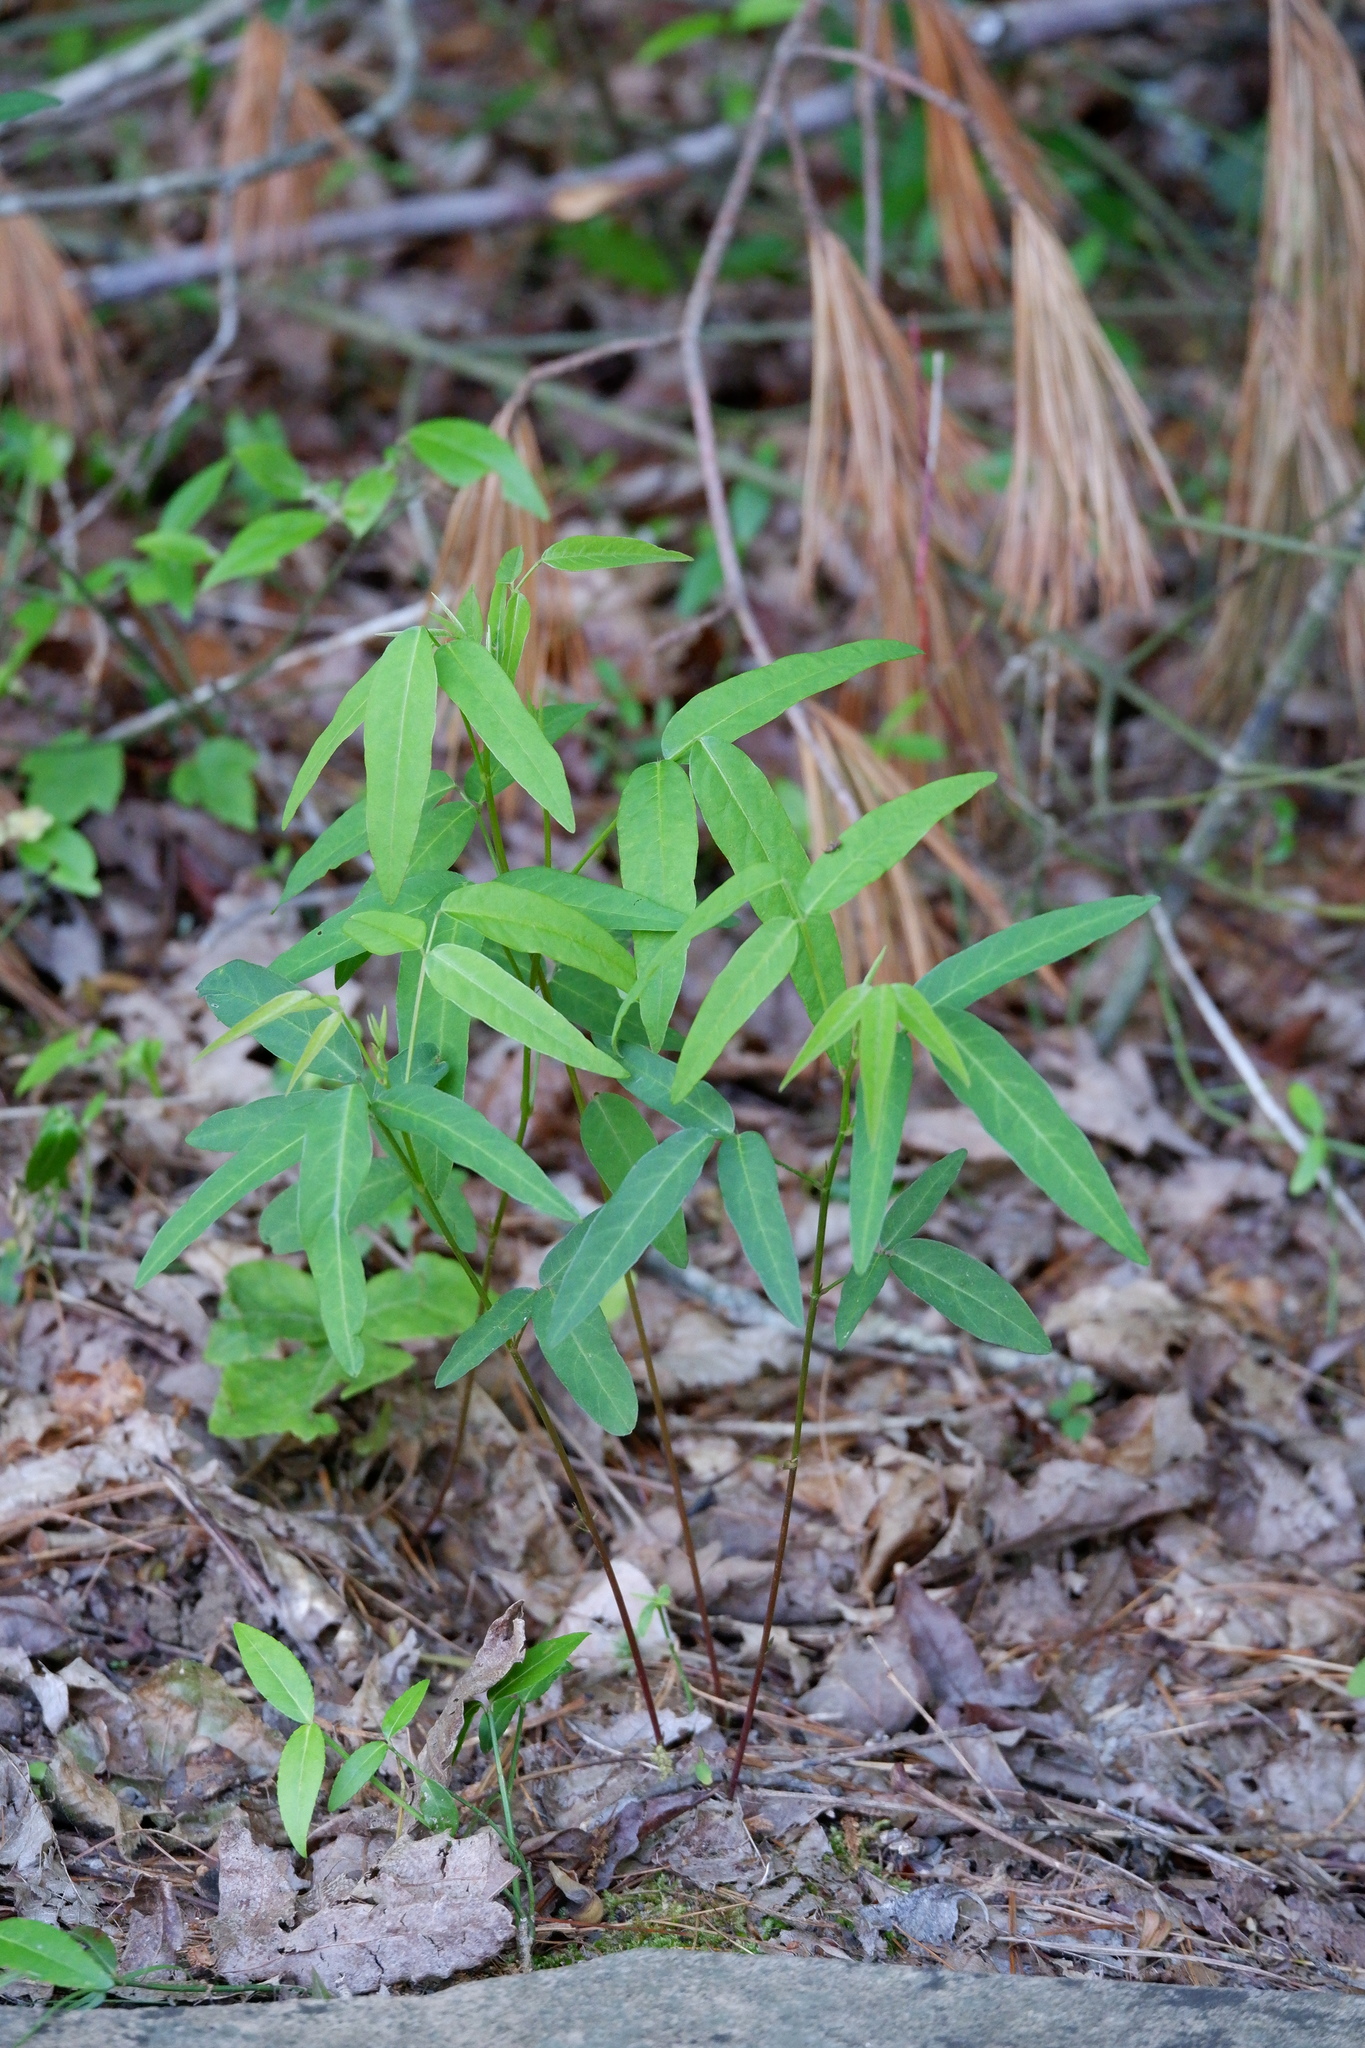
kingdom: Plantae
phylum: Tracheophyta
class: Magnoliopsida
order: Fabales
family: Fabaceae
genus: Desmodium
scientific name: Desmodium paniculatum
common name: Panicled tick-clover
